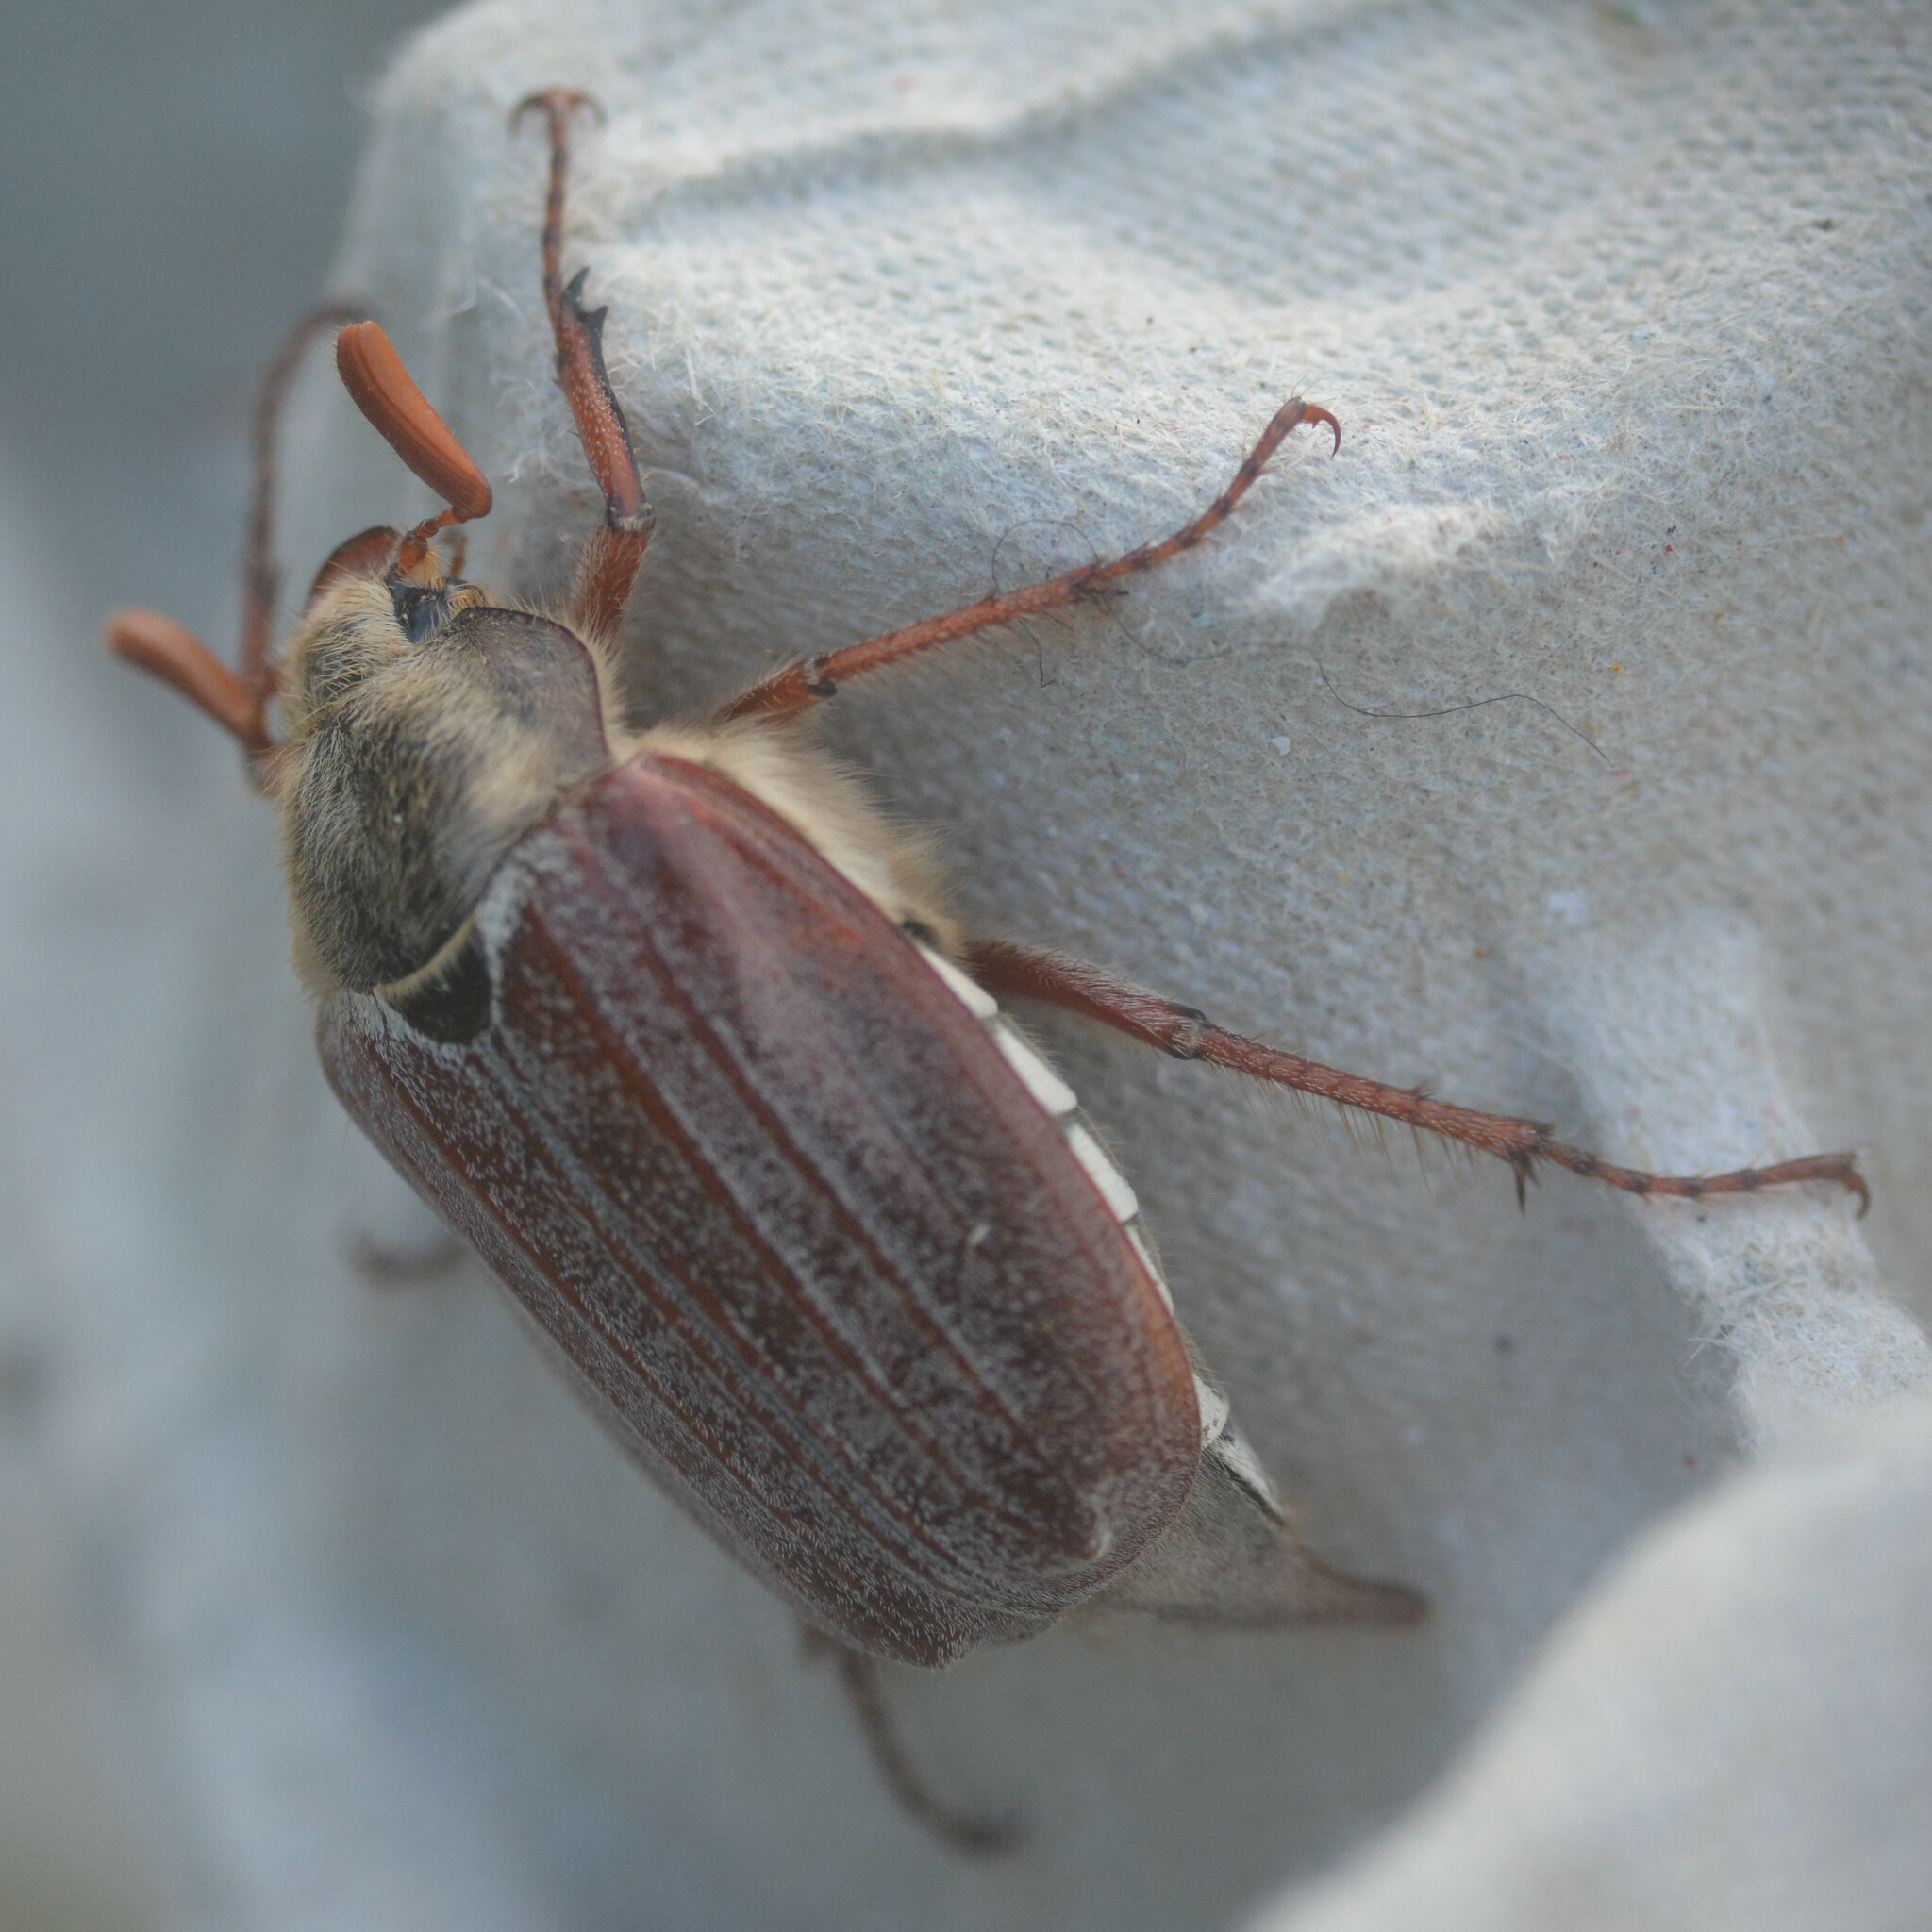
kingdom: Animalia
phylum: Arthropoda
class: Insecta
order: Coleoptera
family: Scarabaeidae
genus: Melolontha
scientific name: Melolontha melolontha
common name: Cockchafer maybeetle
